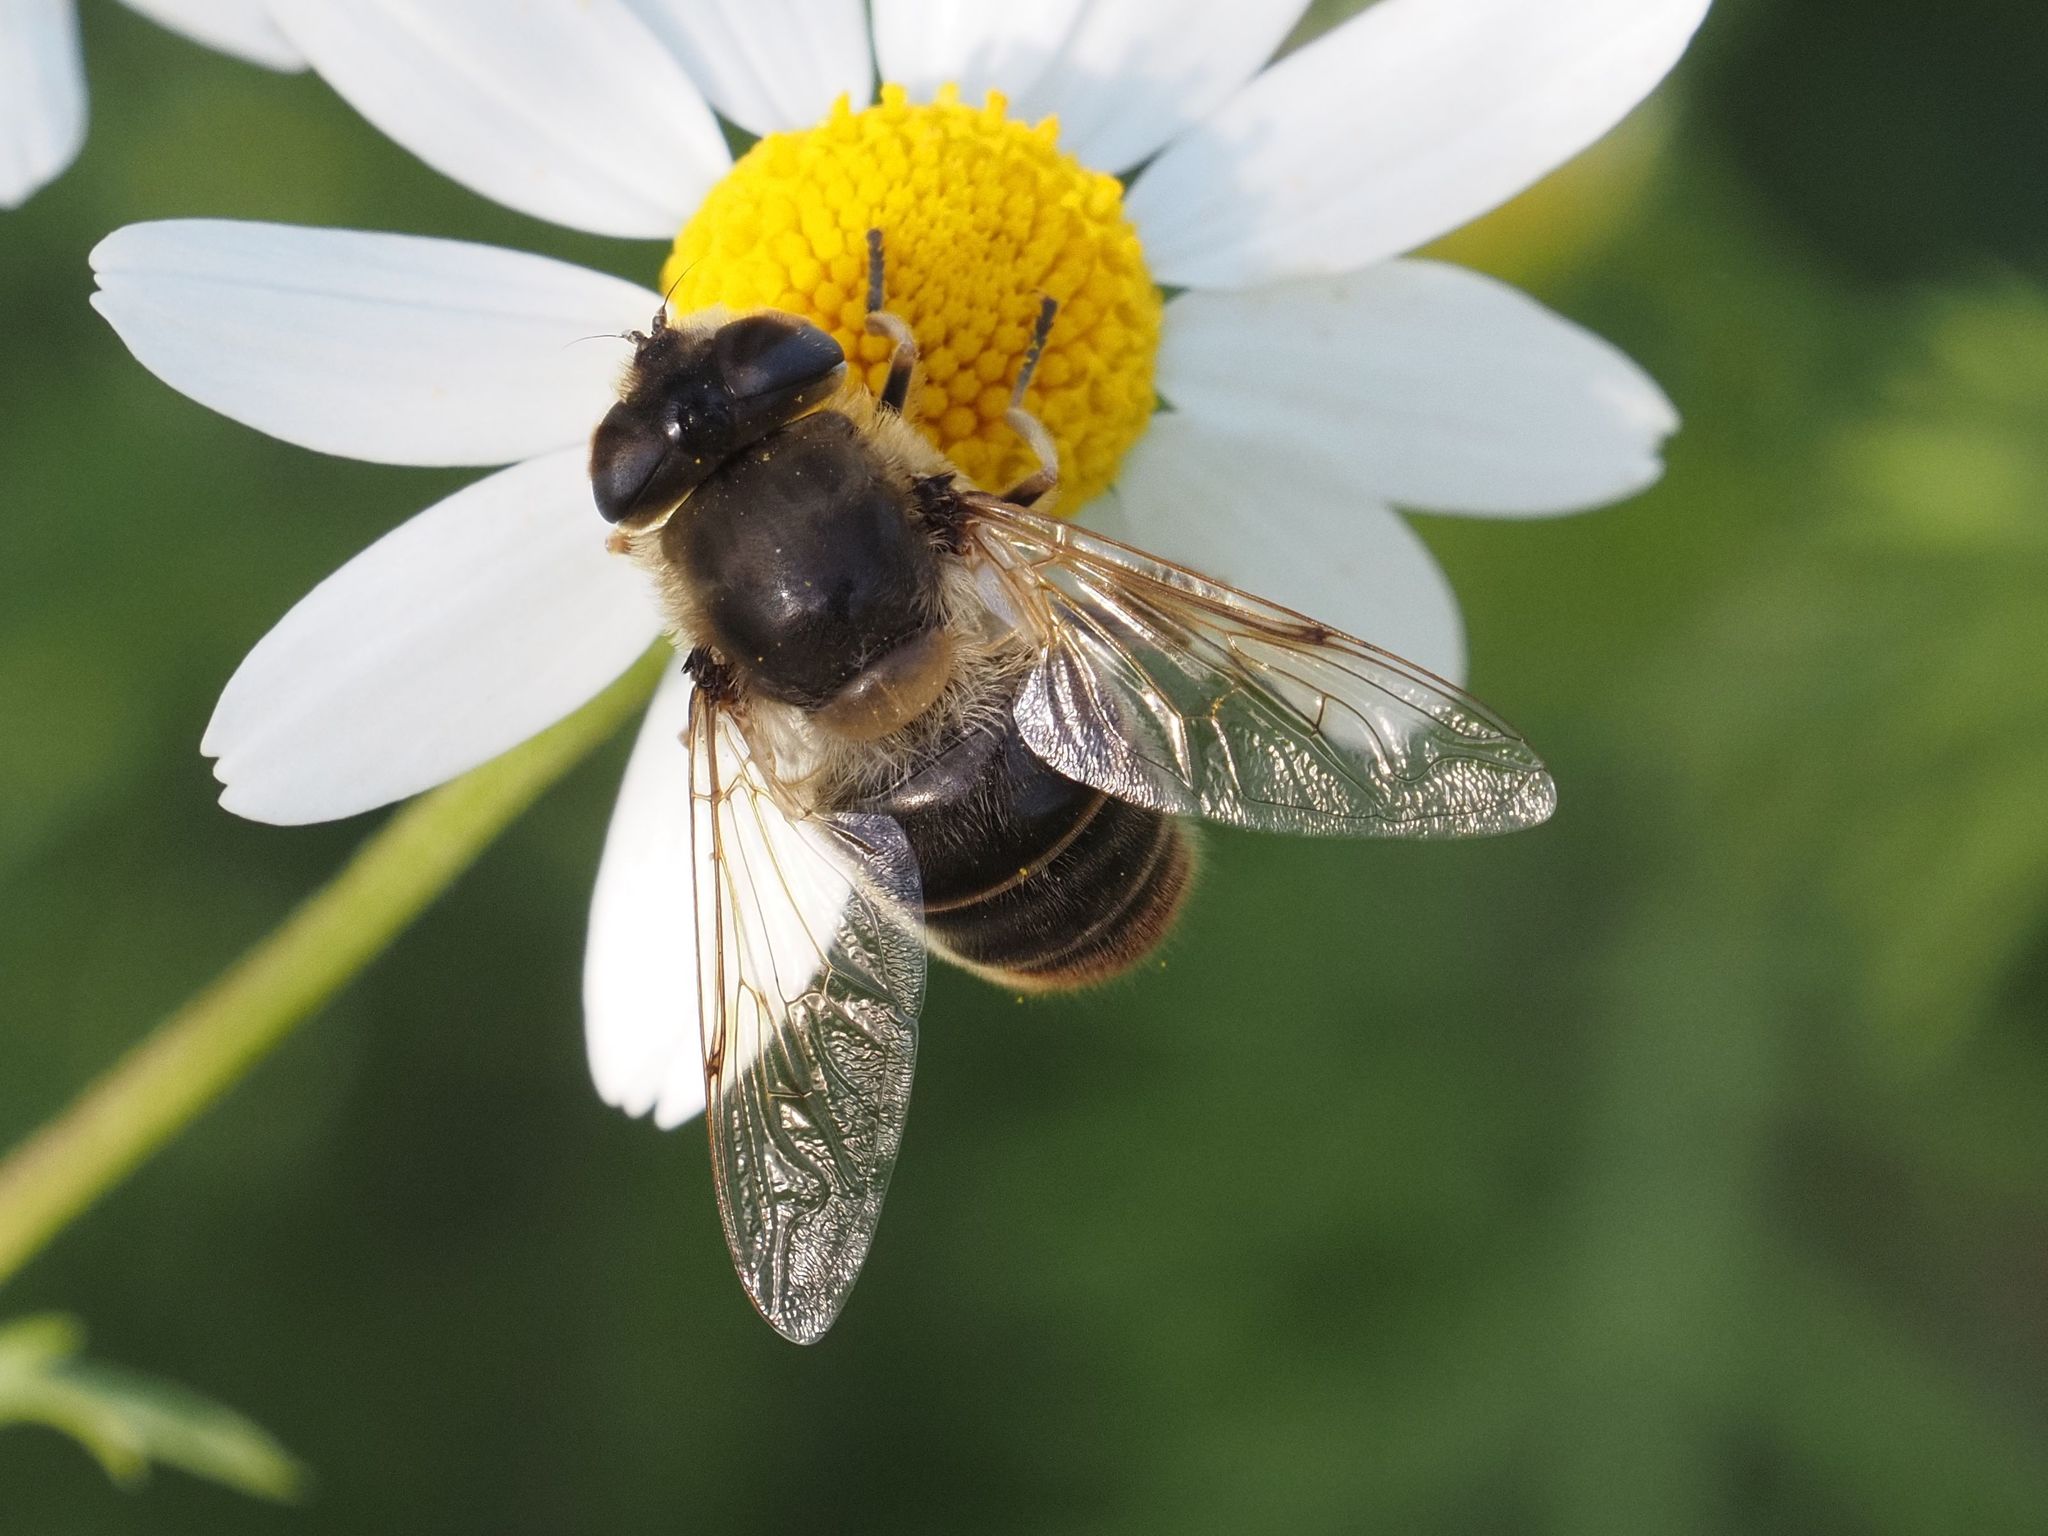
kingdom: Animalia
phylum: Arthropoda
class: Insecta
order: Diptera
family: Syrphidae
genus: Eristalis
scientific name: Eristalis tenax
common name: Drone fly
